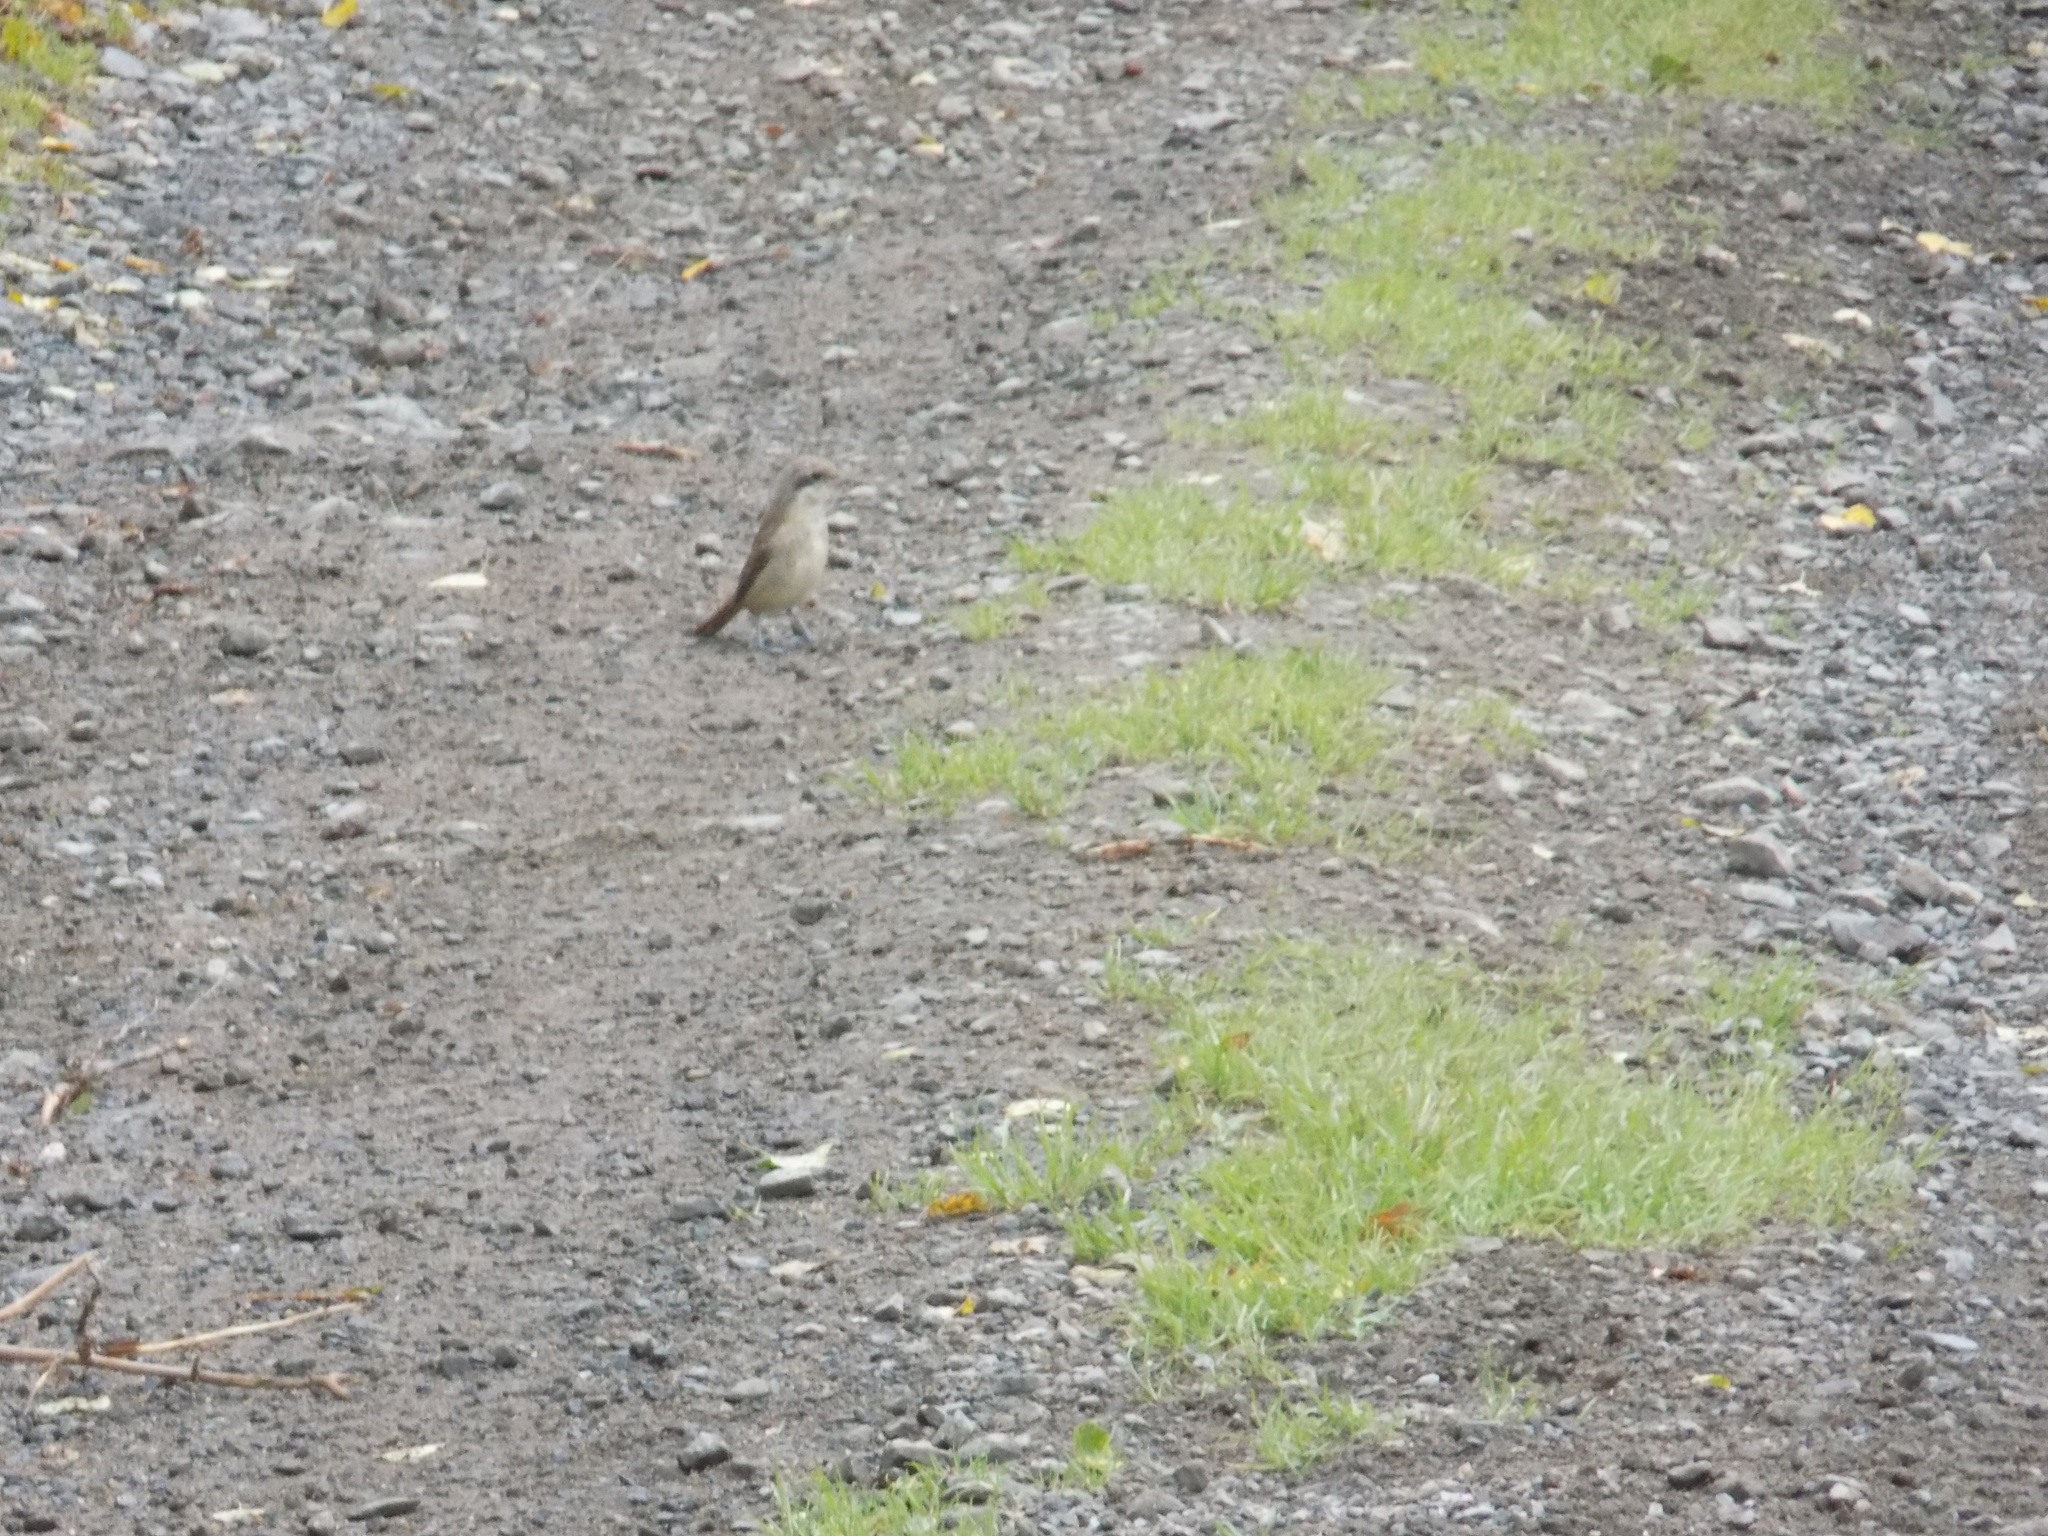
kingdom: Animalia
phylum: Chordata
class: Aves
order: Passeriformes
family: Laniidae
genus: Lanius
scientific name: Lanius collurio
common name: Red-backed shrike
